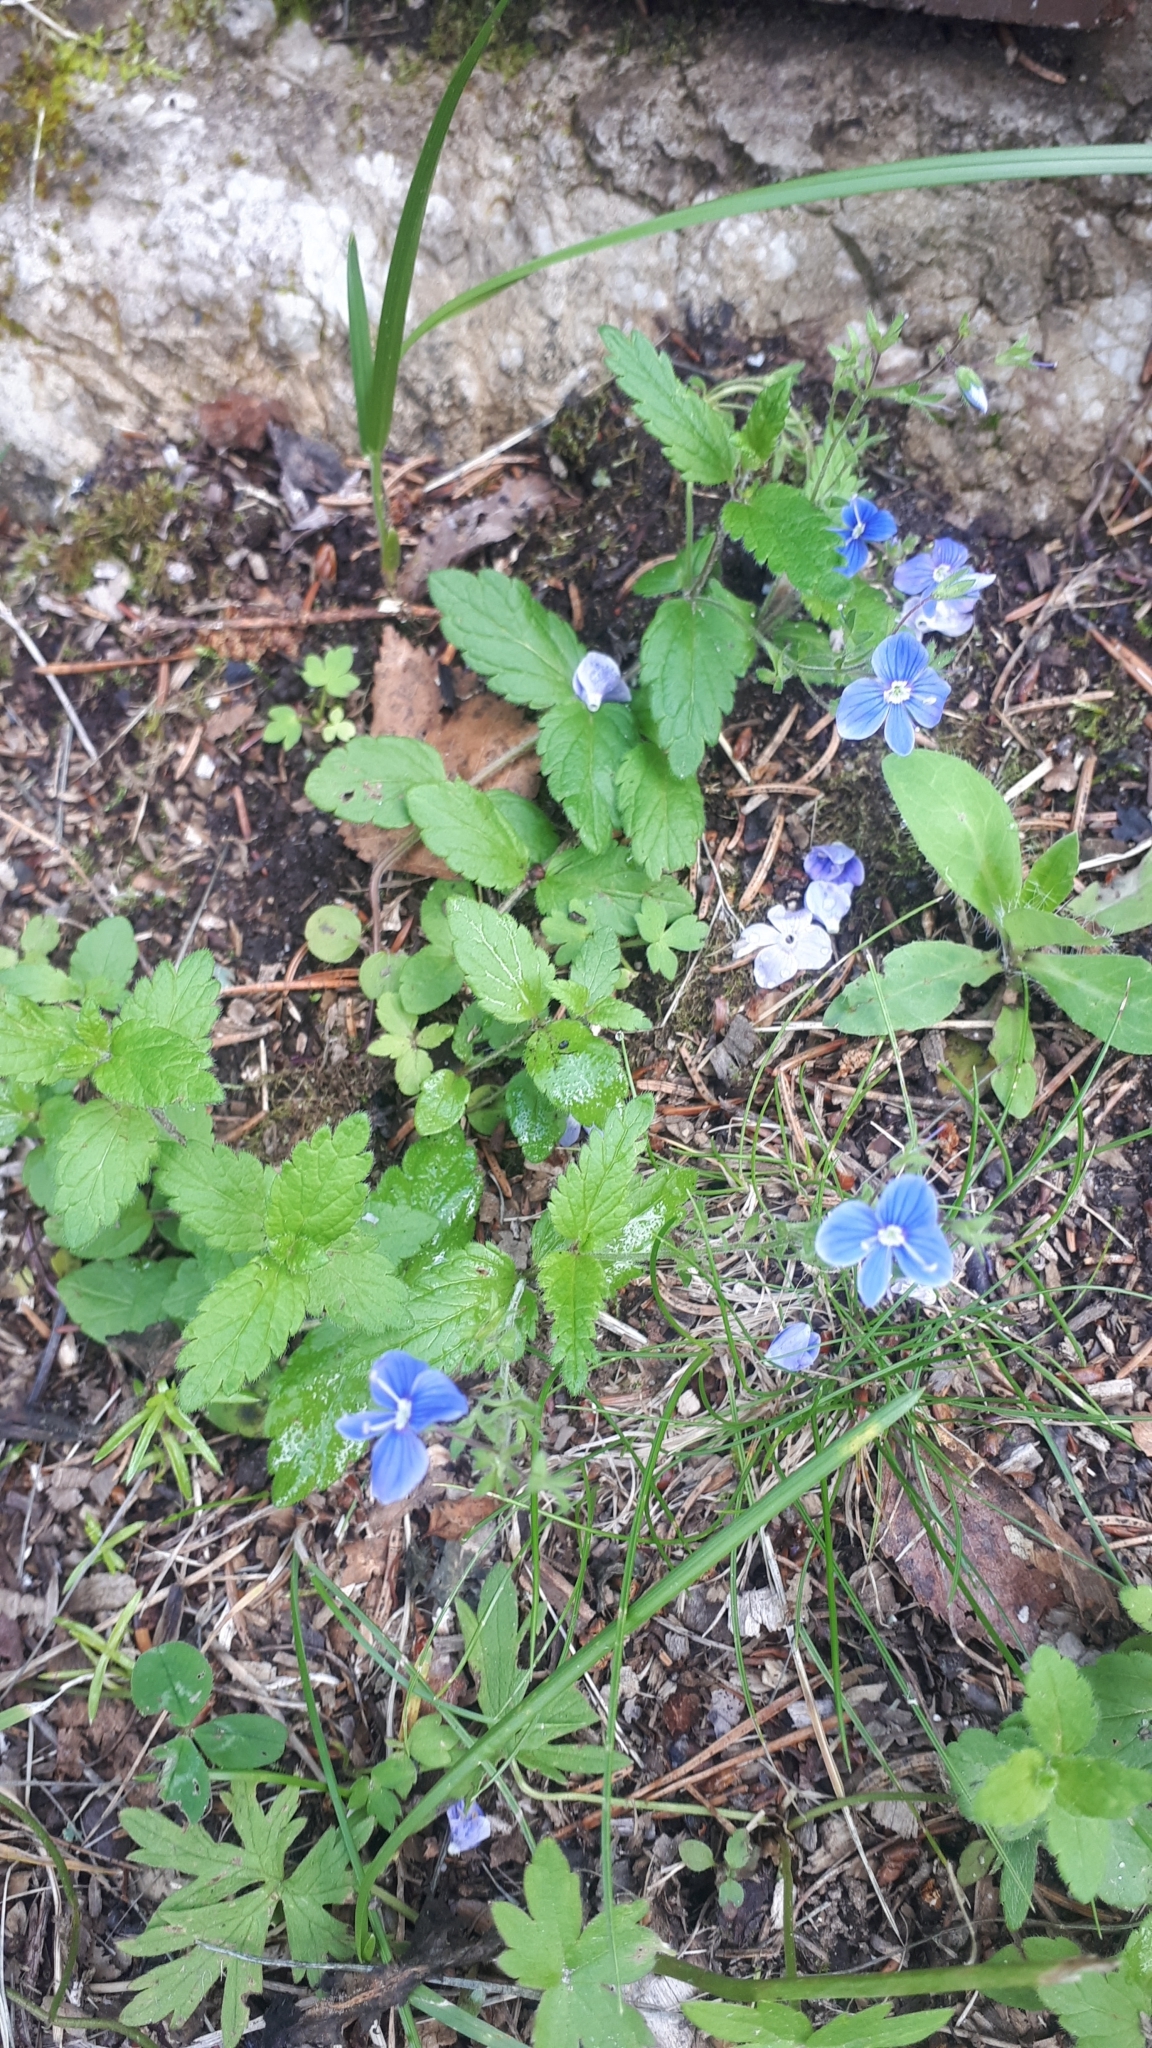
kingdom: Plantae
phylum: Tracheophyta
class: Magnoliopsida
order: Lamiales
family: Plantaginaceae
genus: Veronica
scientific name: Veronica chamaedrys
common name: Germander speedwell
